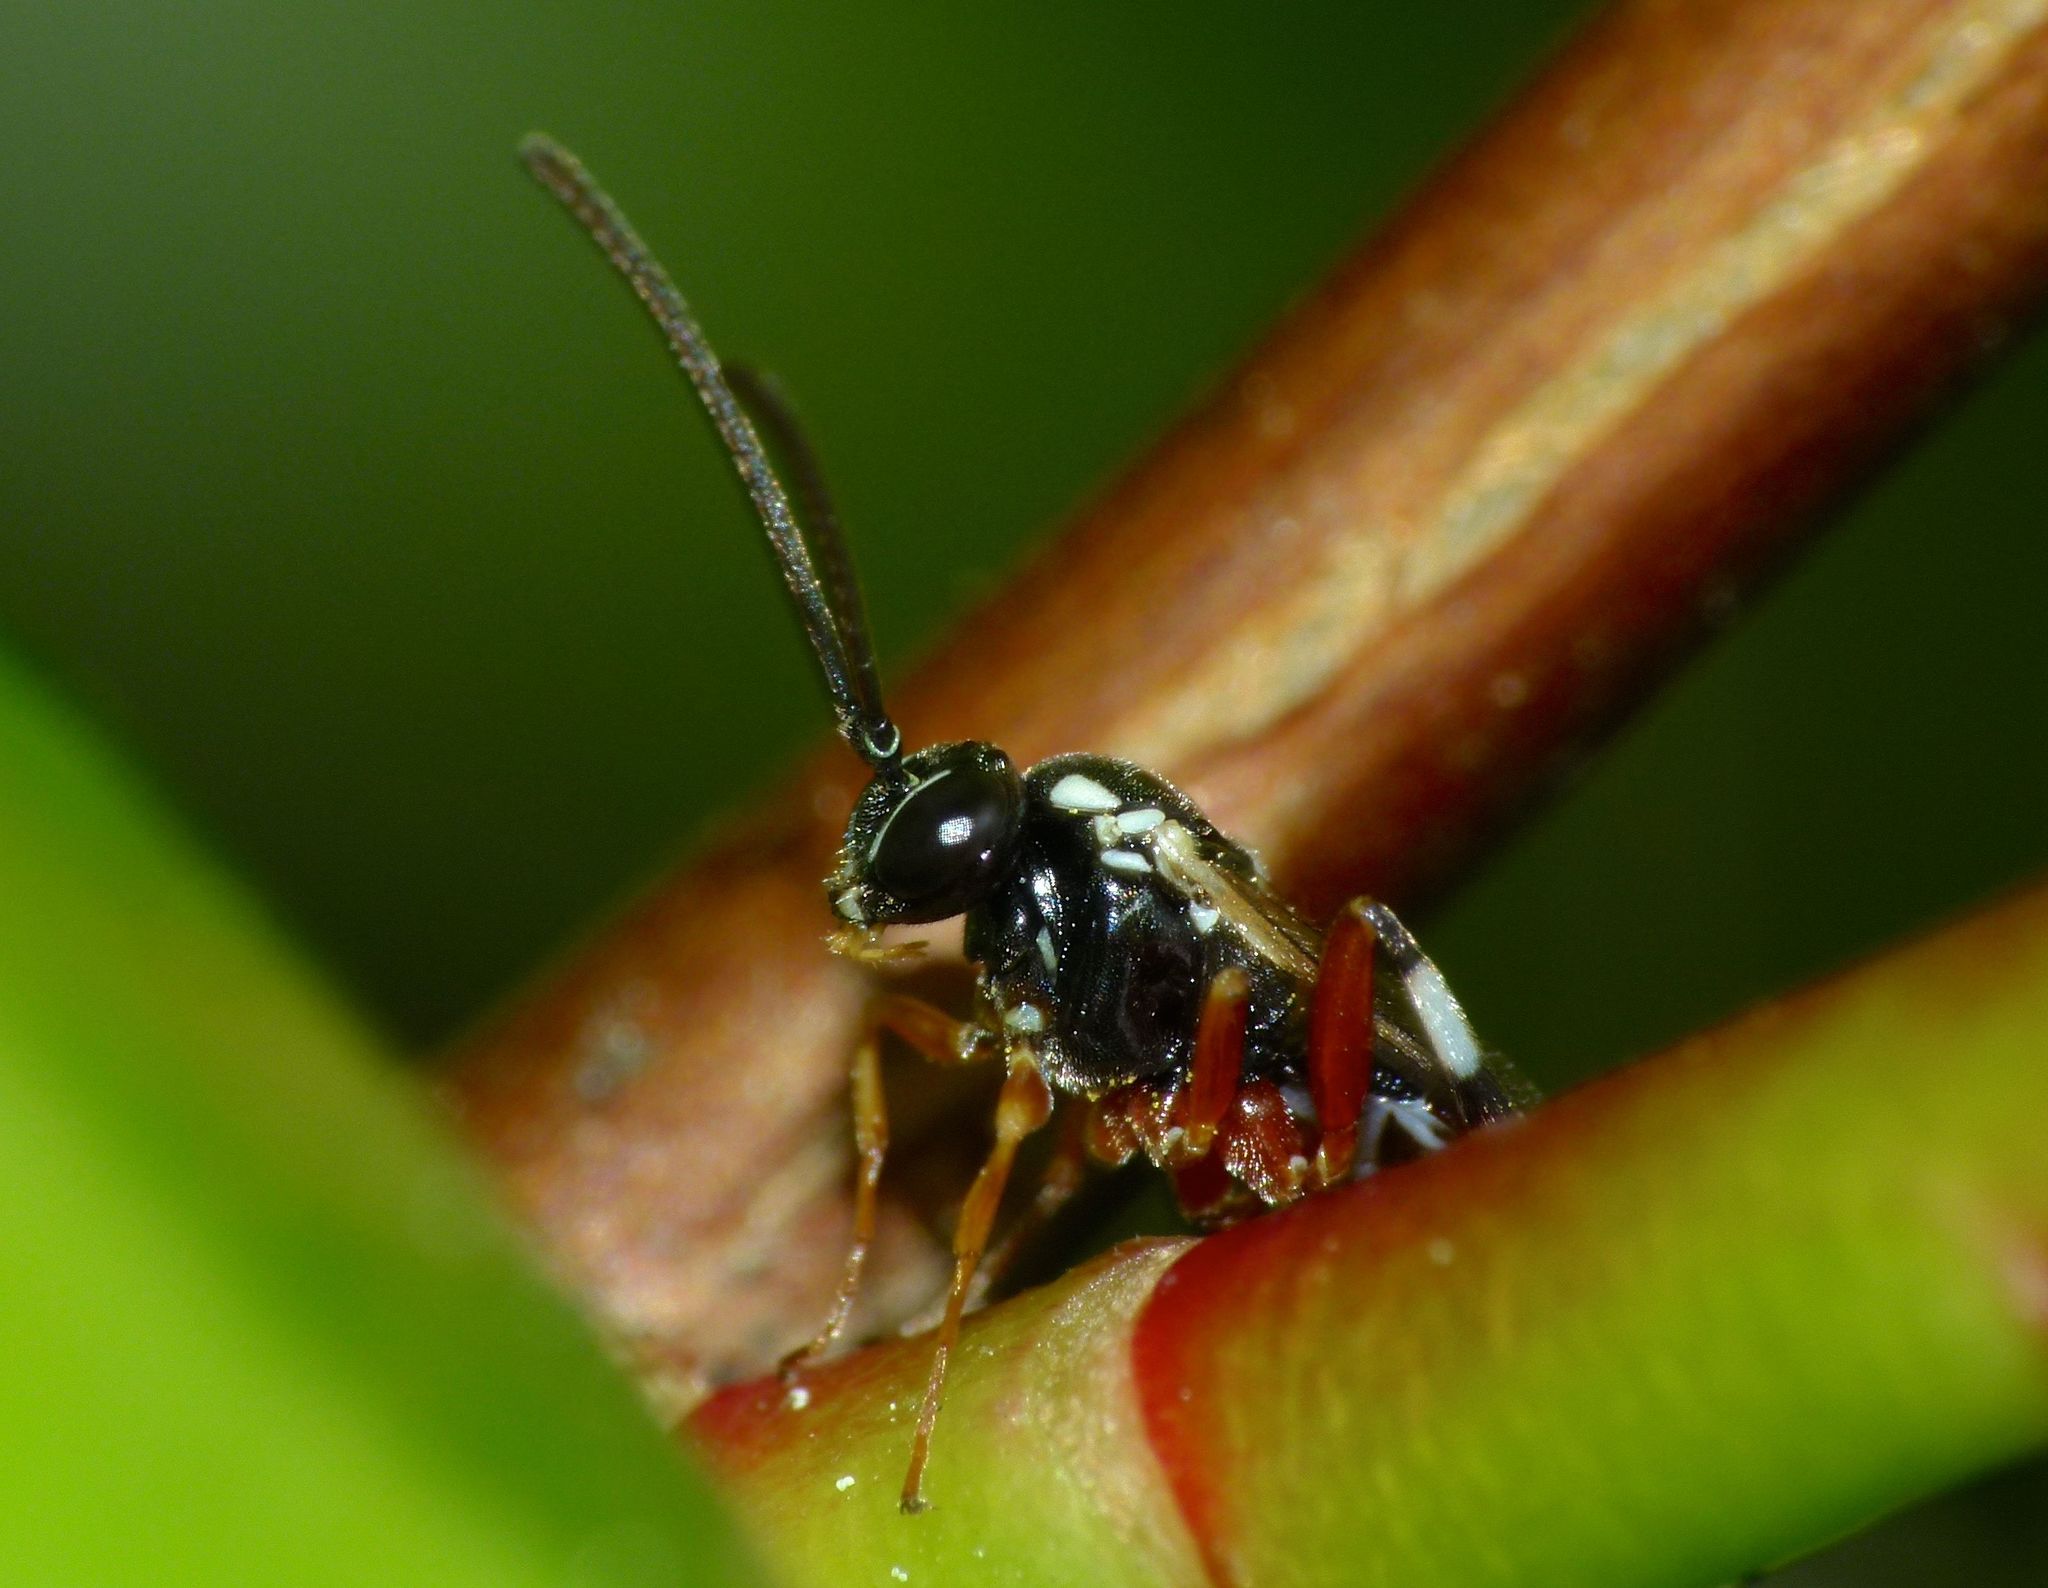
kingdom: Animalia
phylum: Arthropoda
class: Insecta
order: Hymenoptera
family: Ichneumonidae
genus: Diplazon
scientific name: Diplazon laetatorius
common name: Parasitoid wasp
